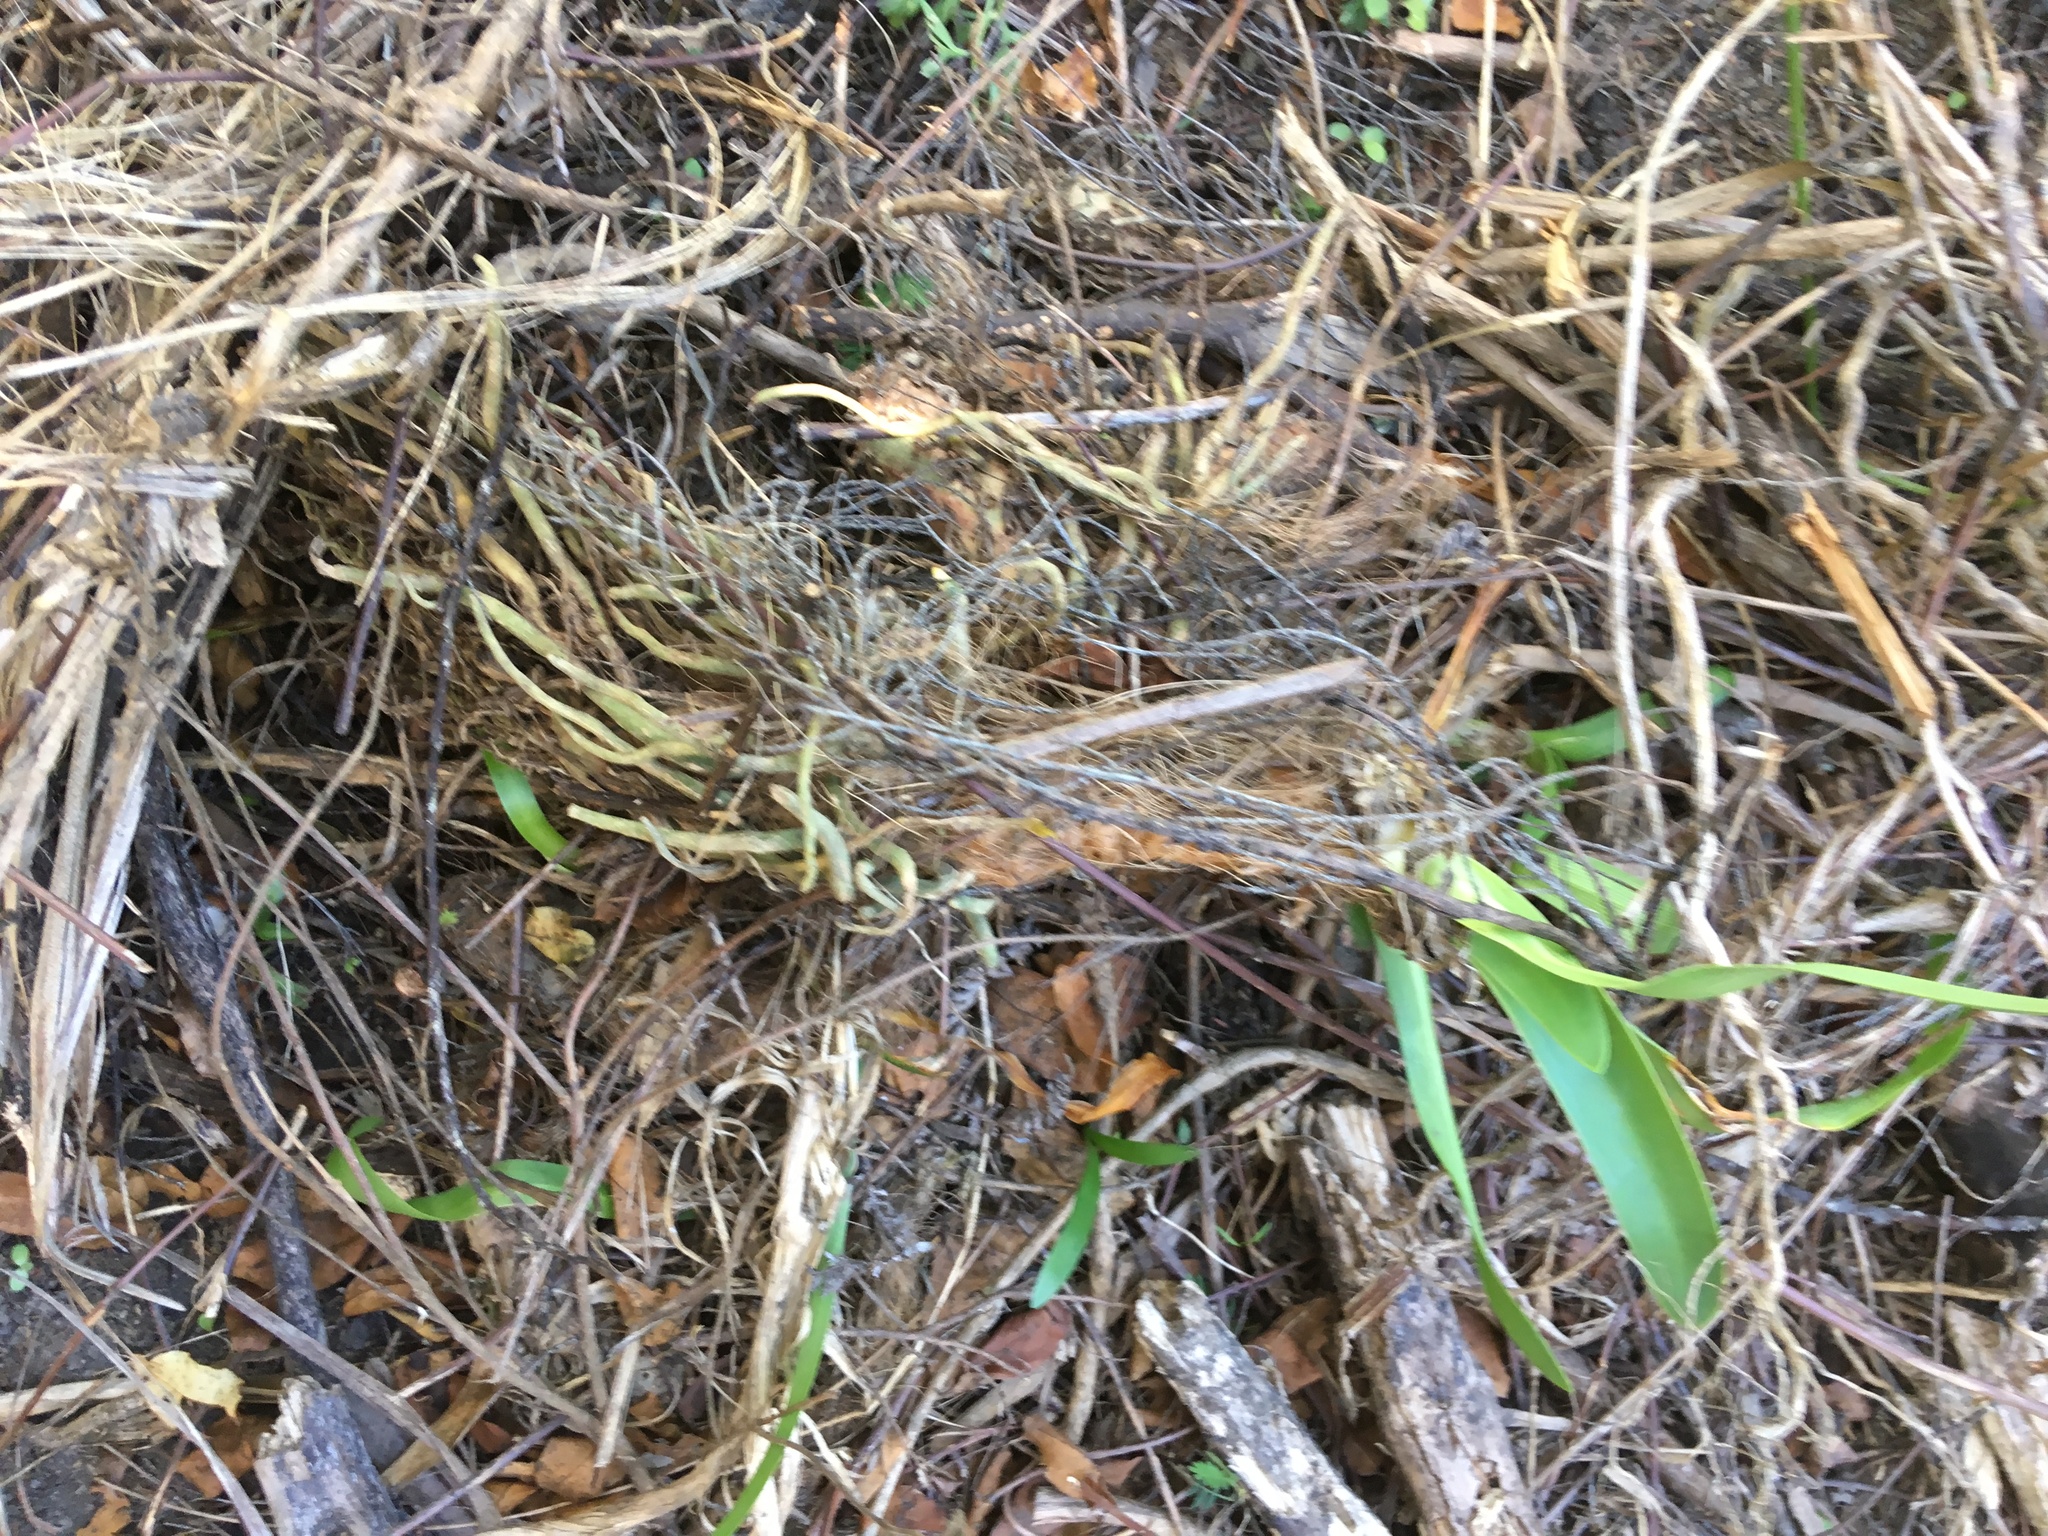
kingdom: Plantae
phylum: Tracheophyta
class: Liliopsida
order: Asparagales
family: Amaryllidaceae
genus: Agapanthus
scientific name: Agapanthus praecox
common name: African-lily
